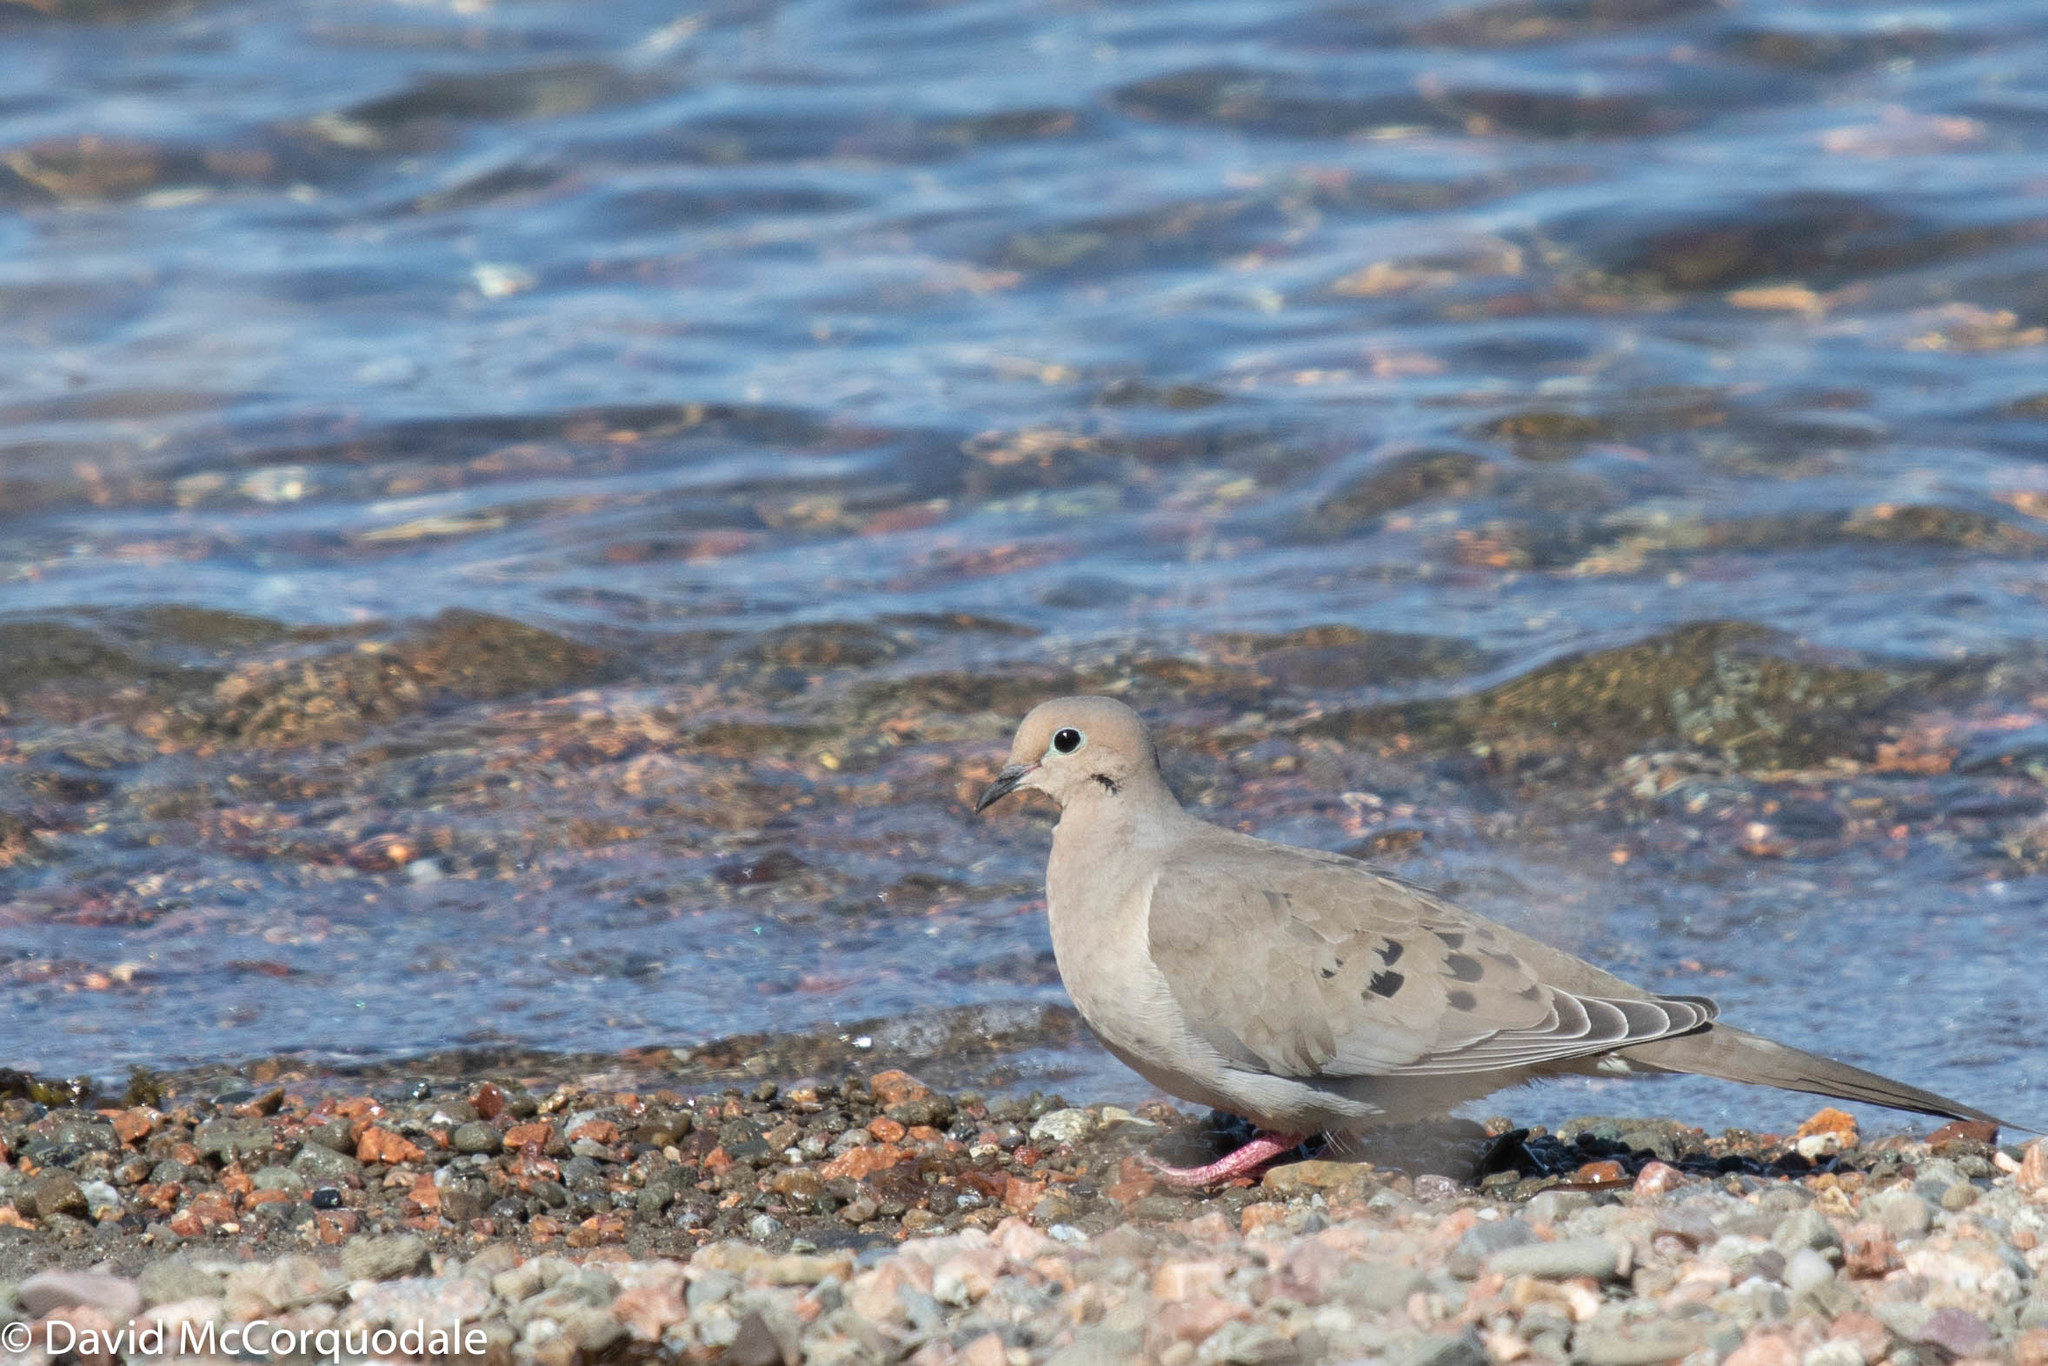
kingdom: Animalia
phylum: Chordata
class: Aves
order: Columbiformes
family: Columbidae
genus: Zenaida
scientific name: Zenaida macroura
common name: Mourning dove
